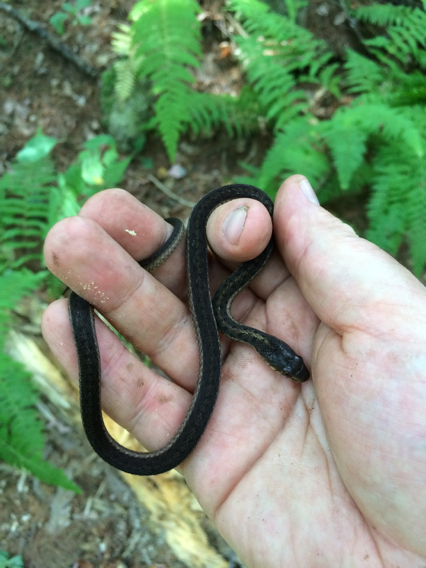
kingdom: Animalia
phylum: Chordata
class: Squamata
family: Colubridae
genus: Thamnophis
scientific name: Thamnophis sirtalis
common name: Common garter snake
